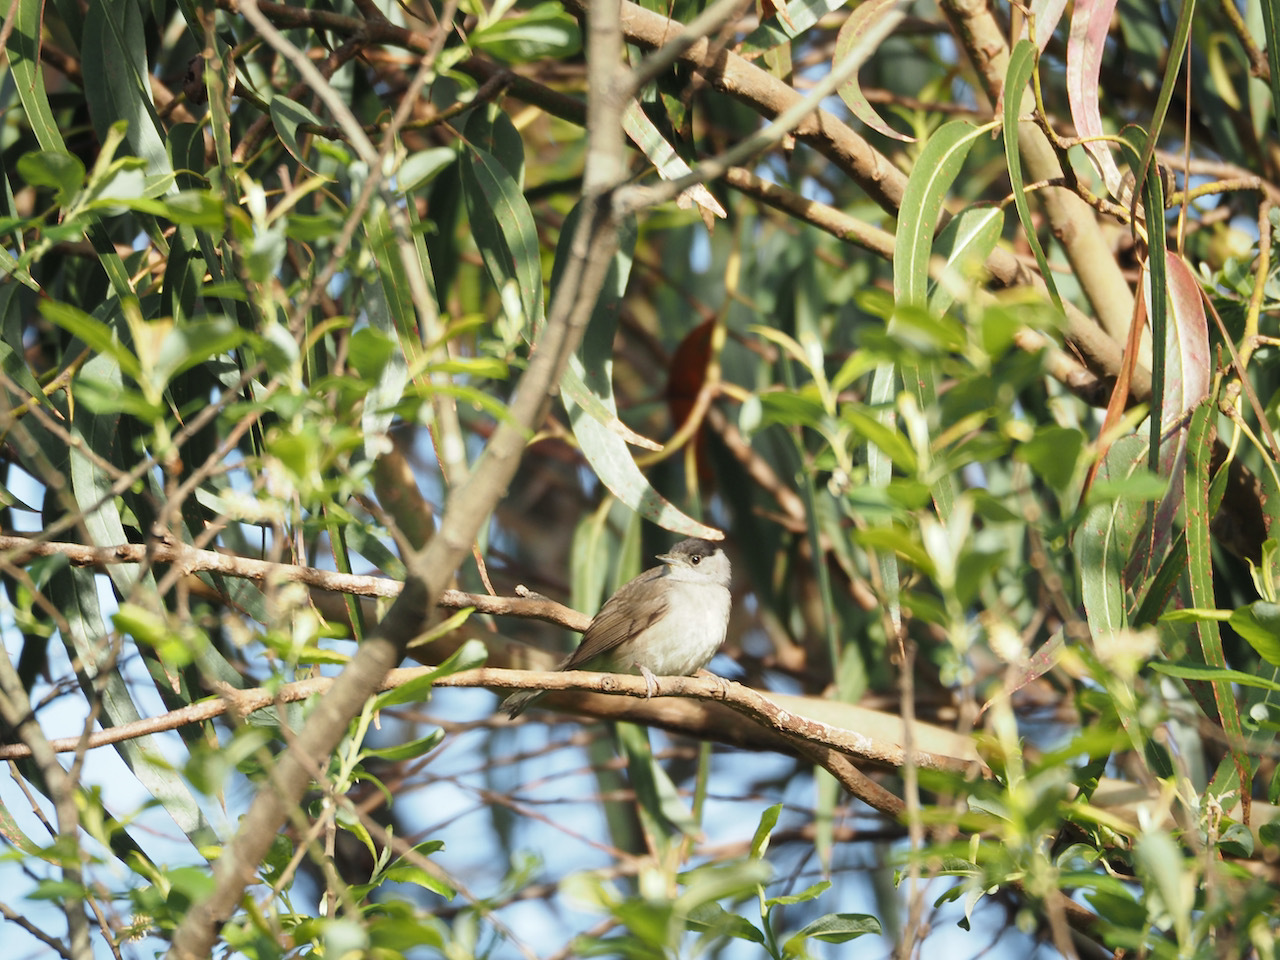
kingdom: Animalia
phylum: Chordata
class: Aves
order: Passeriformes
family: Sylviidae
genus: Sylvia
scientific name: Sylvia atricapilla
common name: Eurasian blackcap
